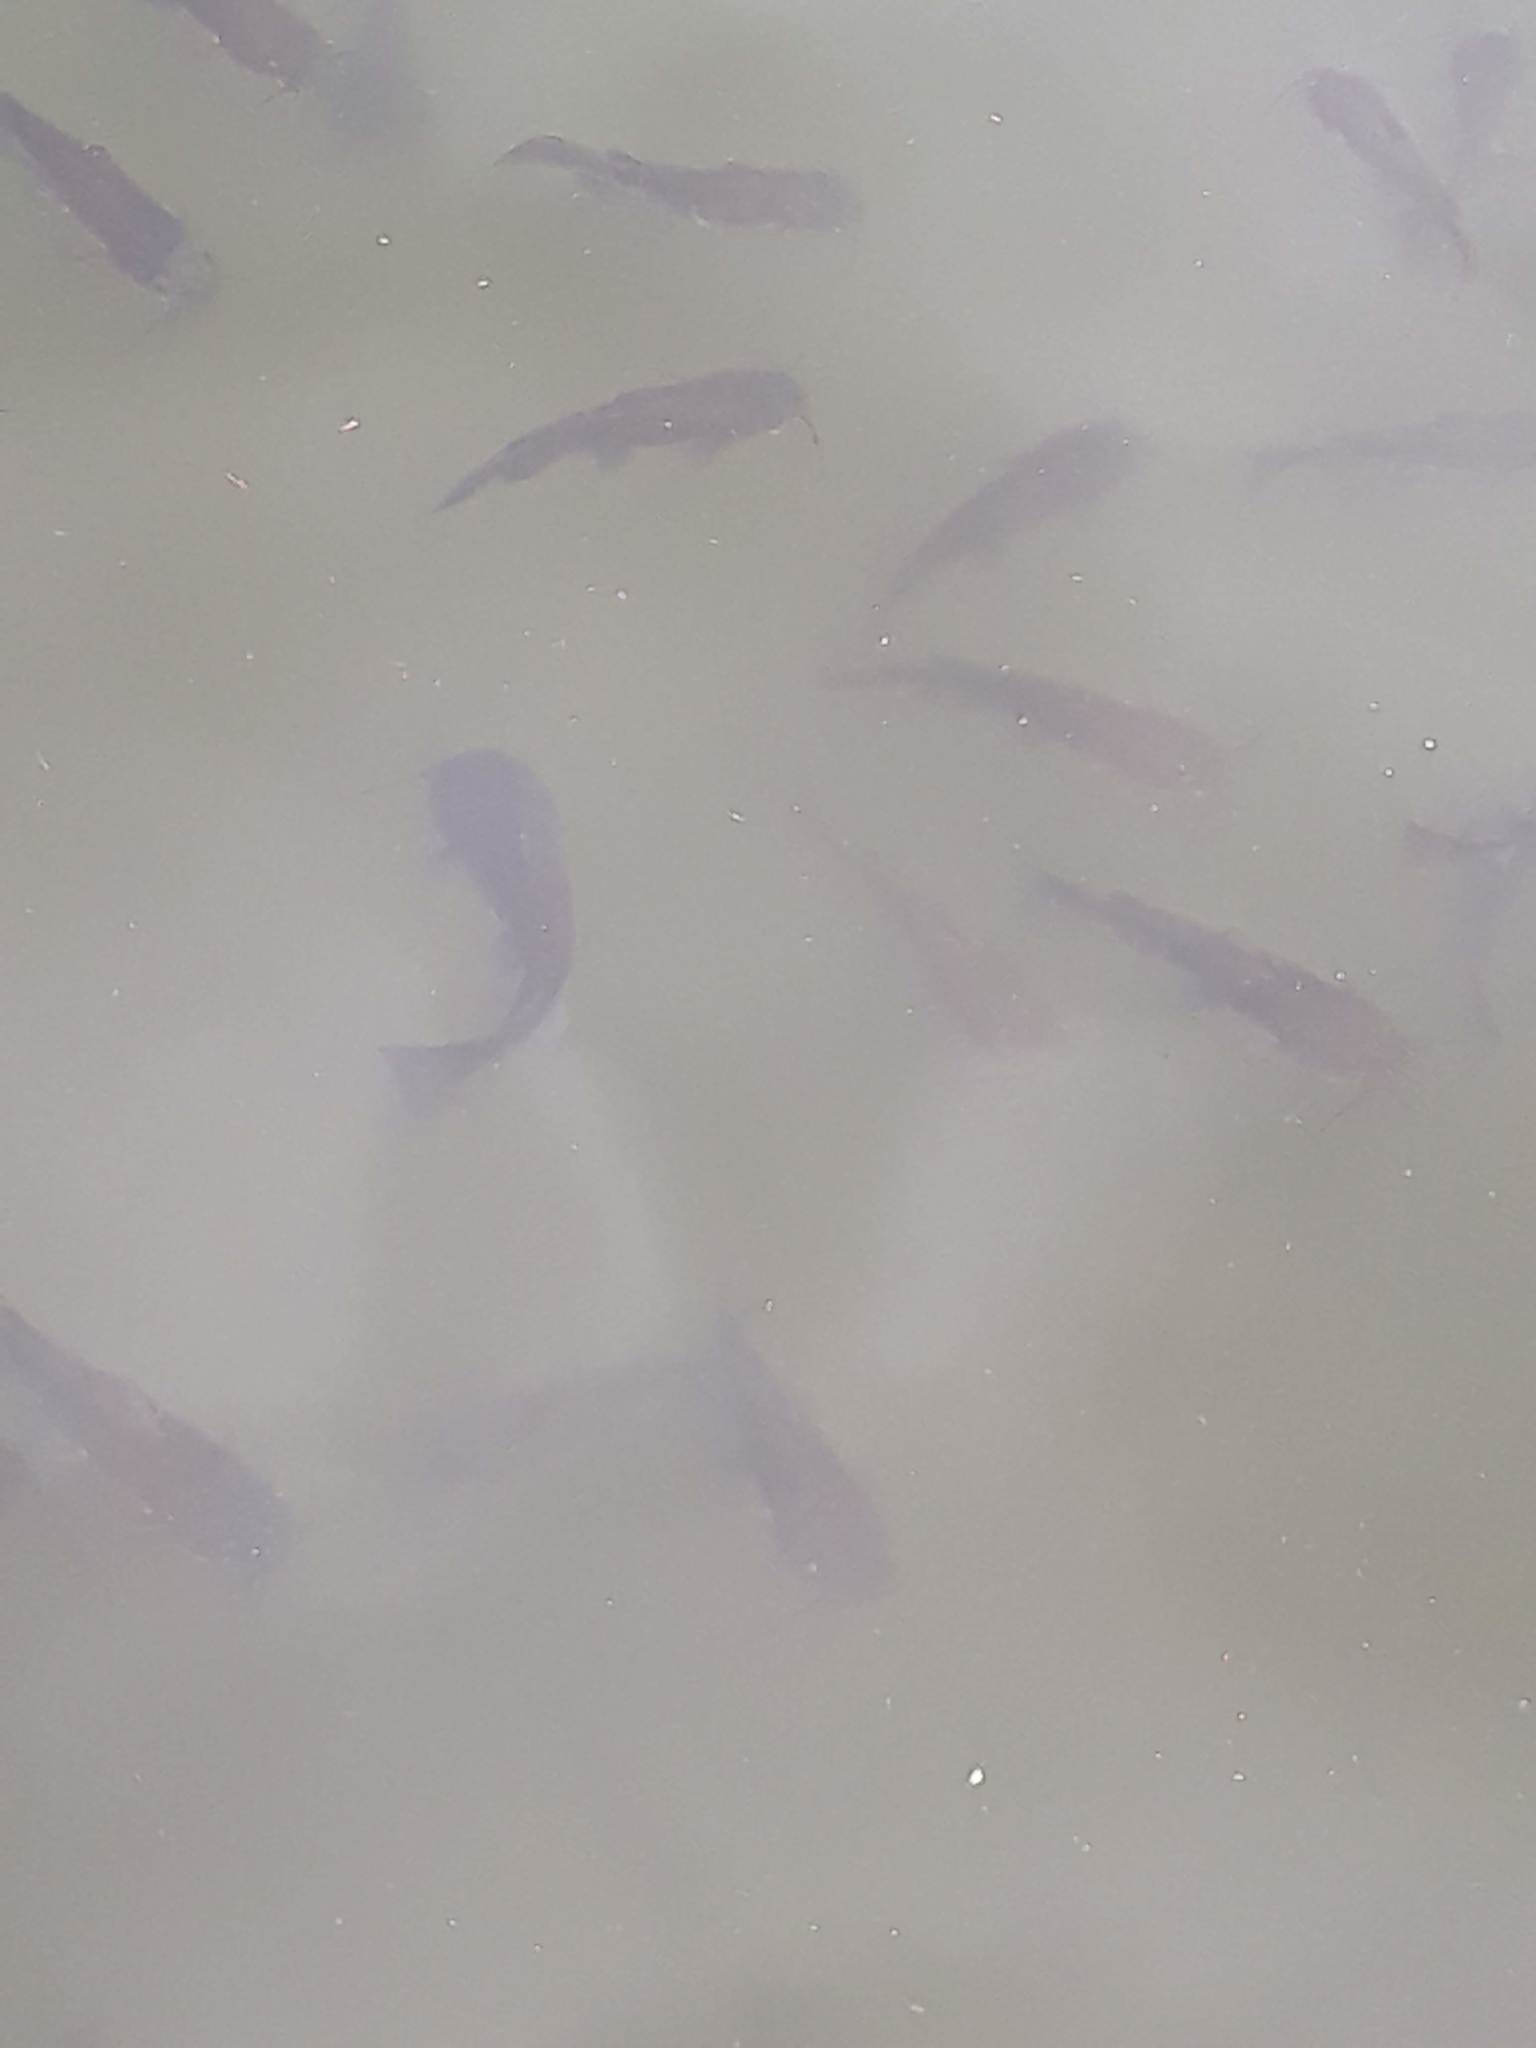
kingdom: Animalia
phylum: Chordata
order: Siluriformes
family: Ictaluridae
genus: Ameiurus
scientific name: Ameiurus
